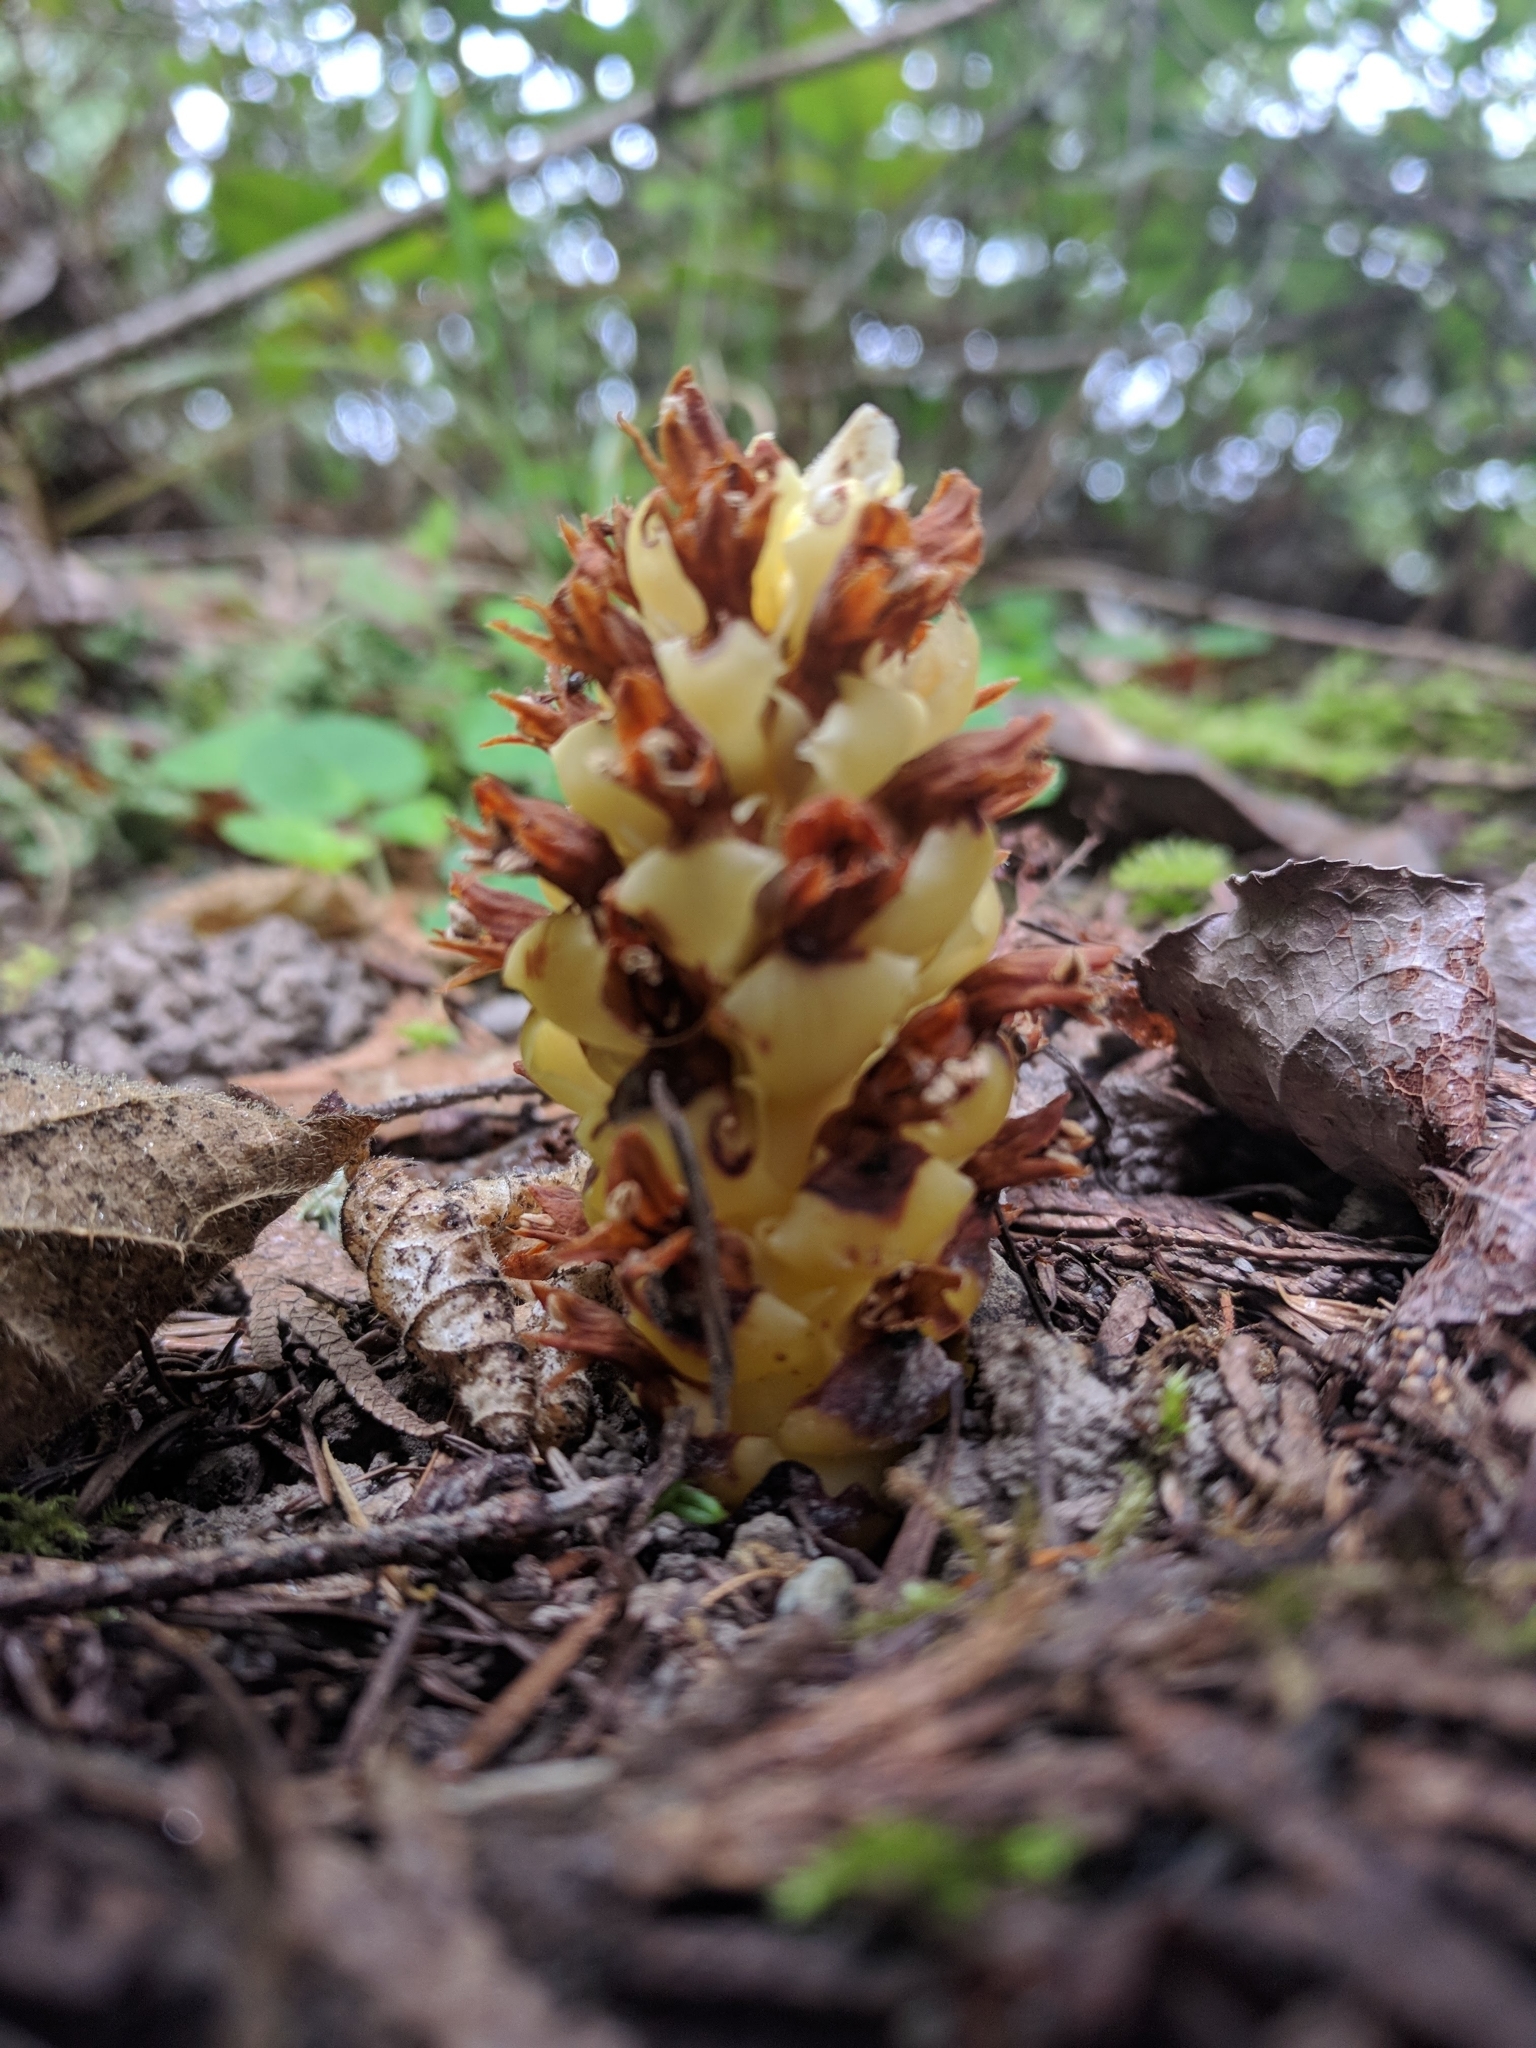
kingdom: Plantae
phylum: Tracheophyta
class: Magnoliopsida
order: Lamiales
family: Orobanchaceae
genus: Kopsiopsis
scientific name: Kopsiopsis hookeri
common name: Hooker's groundcone
